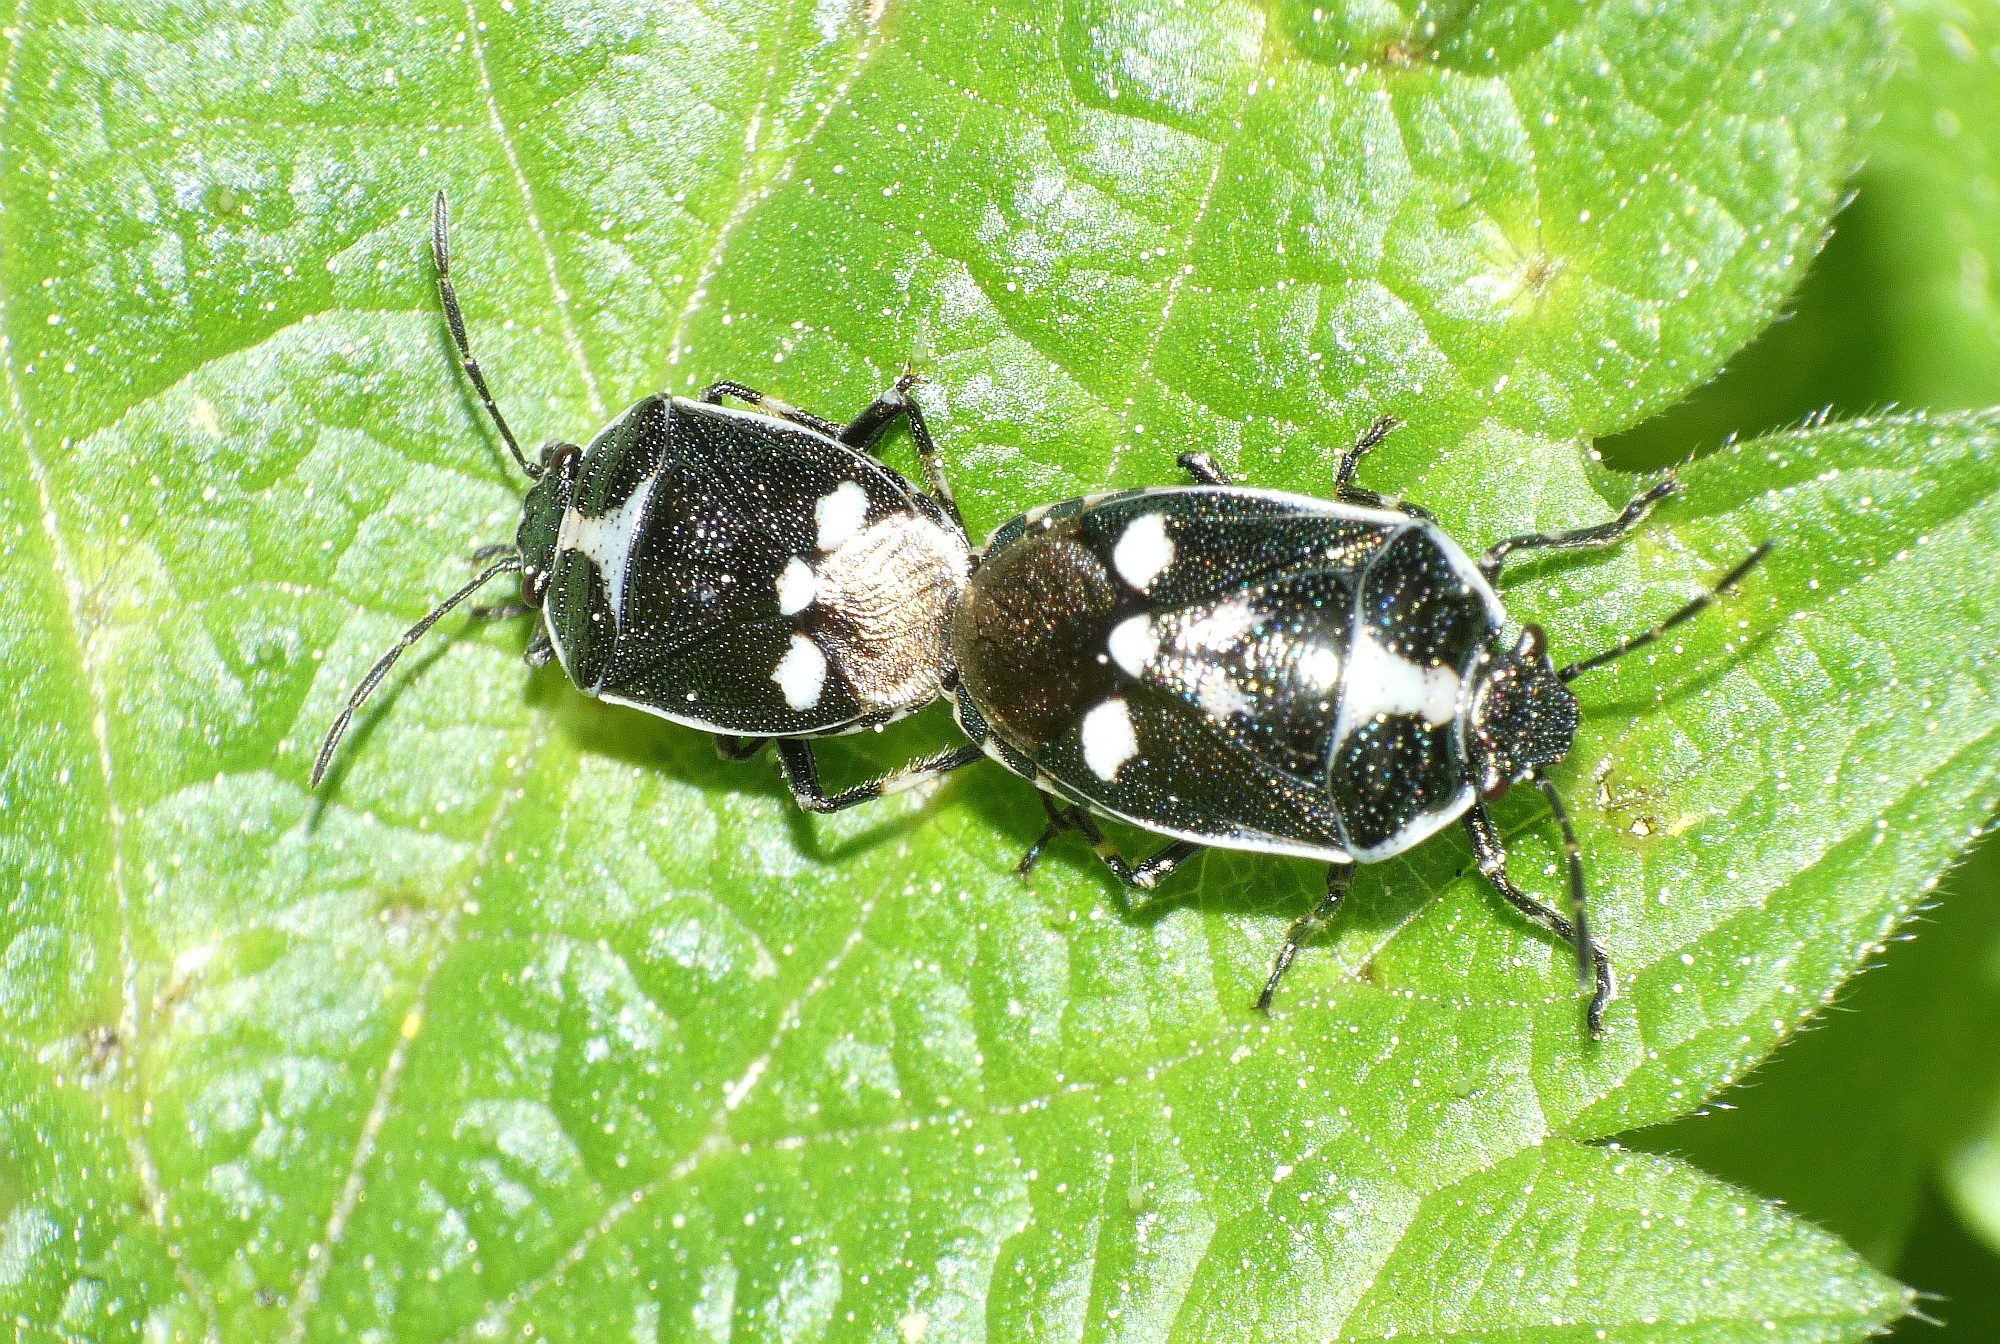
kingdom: Animalia
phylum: Arthropoda
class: Insecta
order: Hemiptera
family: Pentatomidae
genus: Eurydema
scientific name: Eurydema oleracea
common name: Cabbage bug
